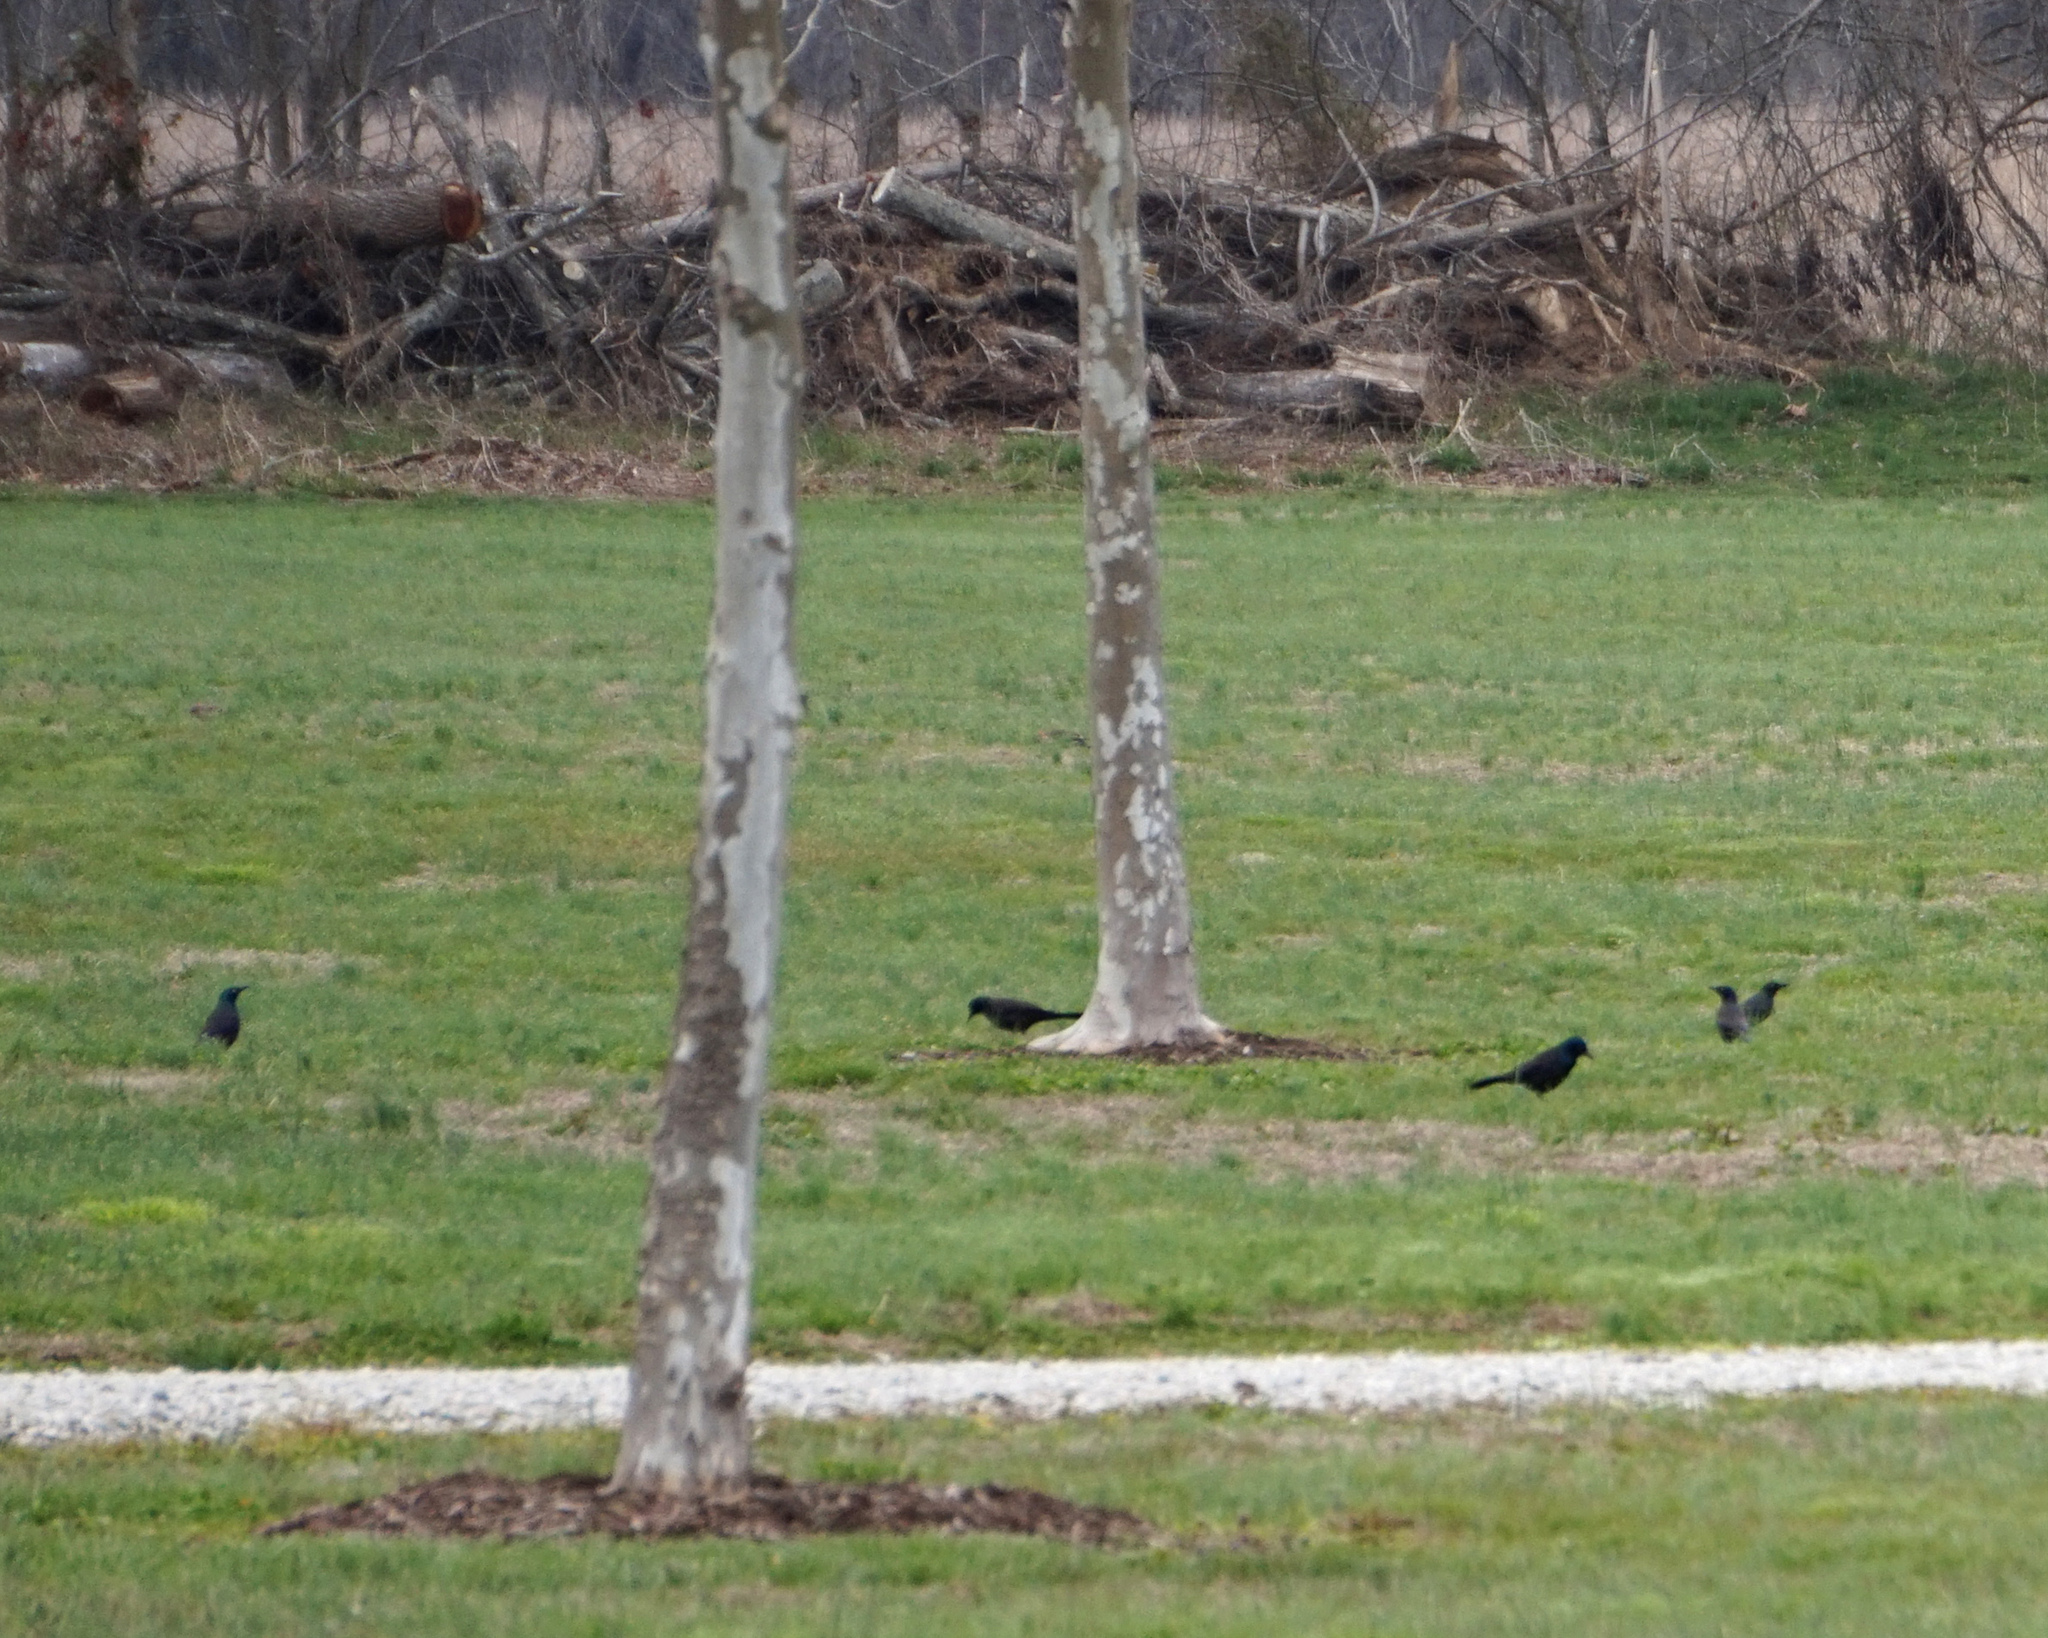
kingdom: Animalia
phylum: Chordata
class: Aves
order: Passeriformes
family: Icteridae
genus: Quiscalus
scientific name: Quiscalus quiscula
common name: Common grackle
